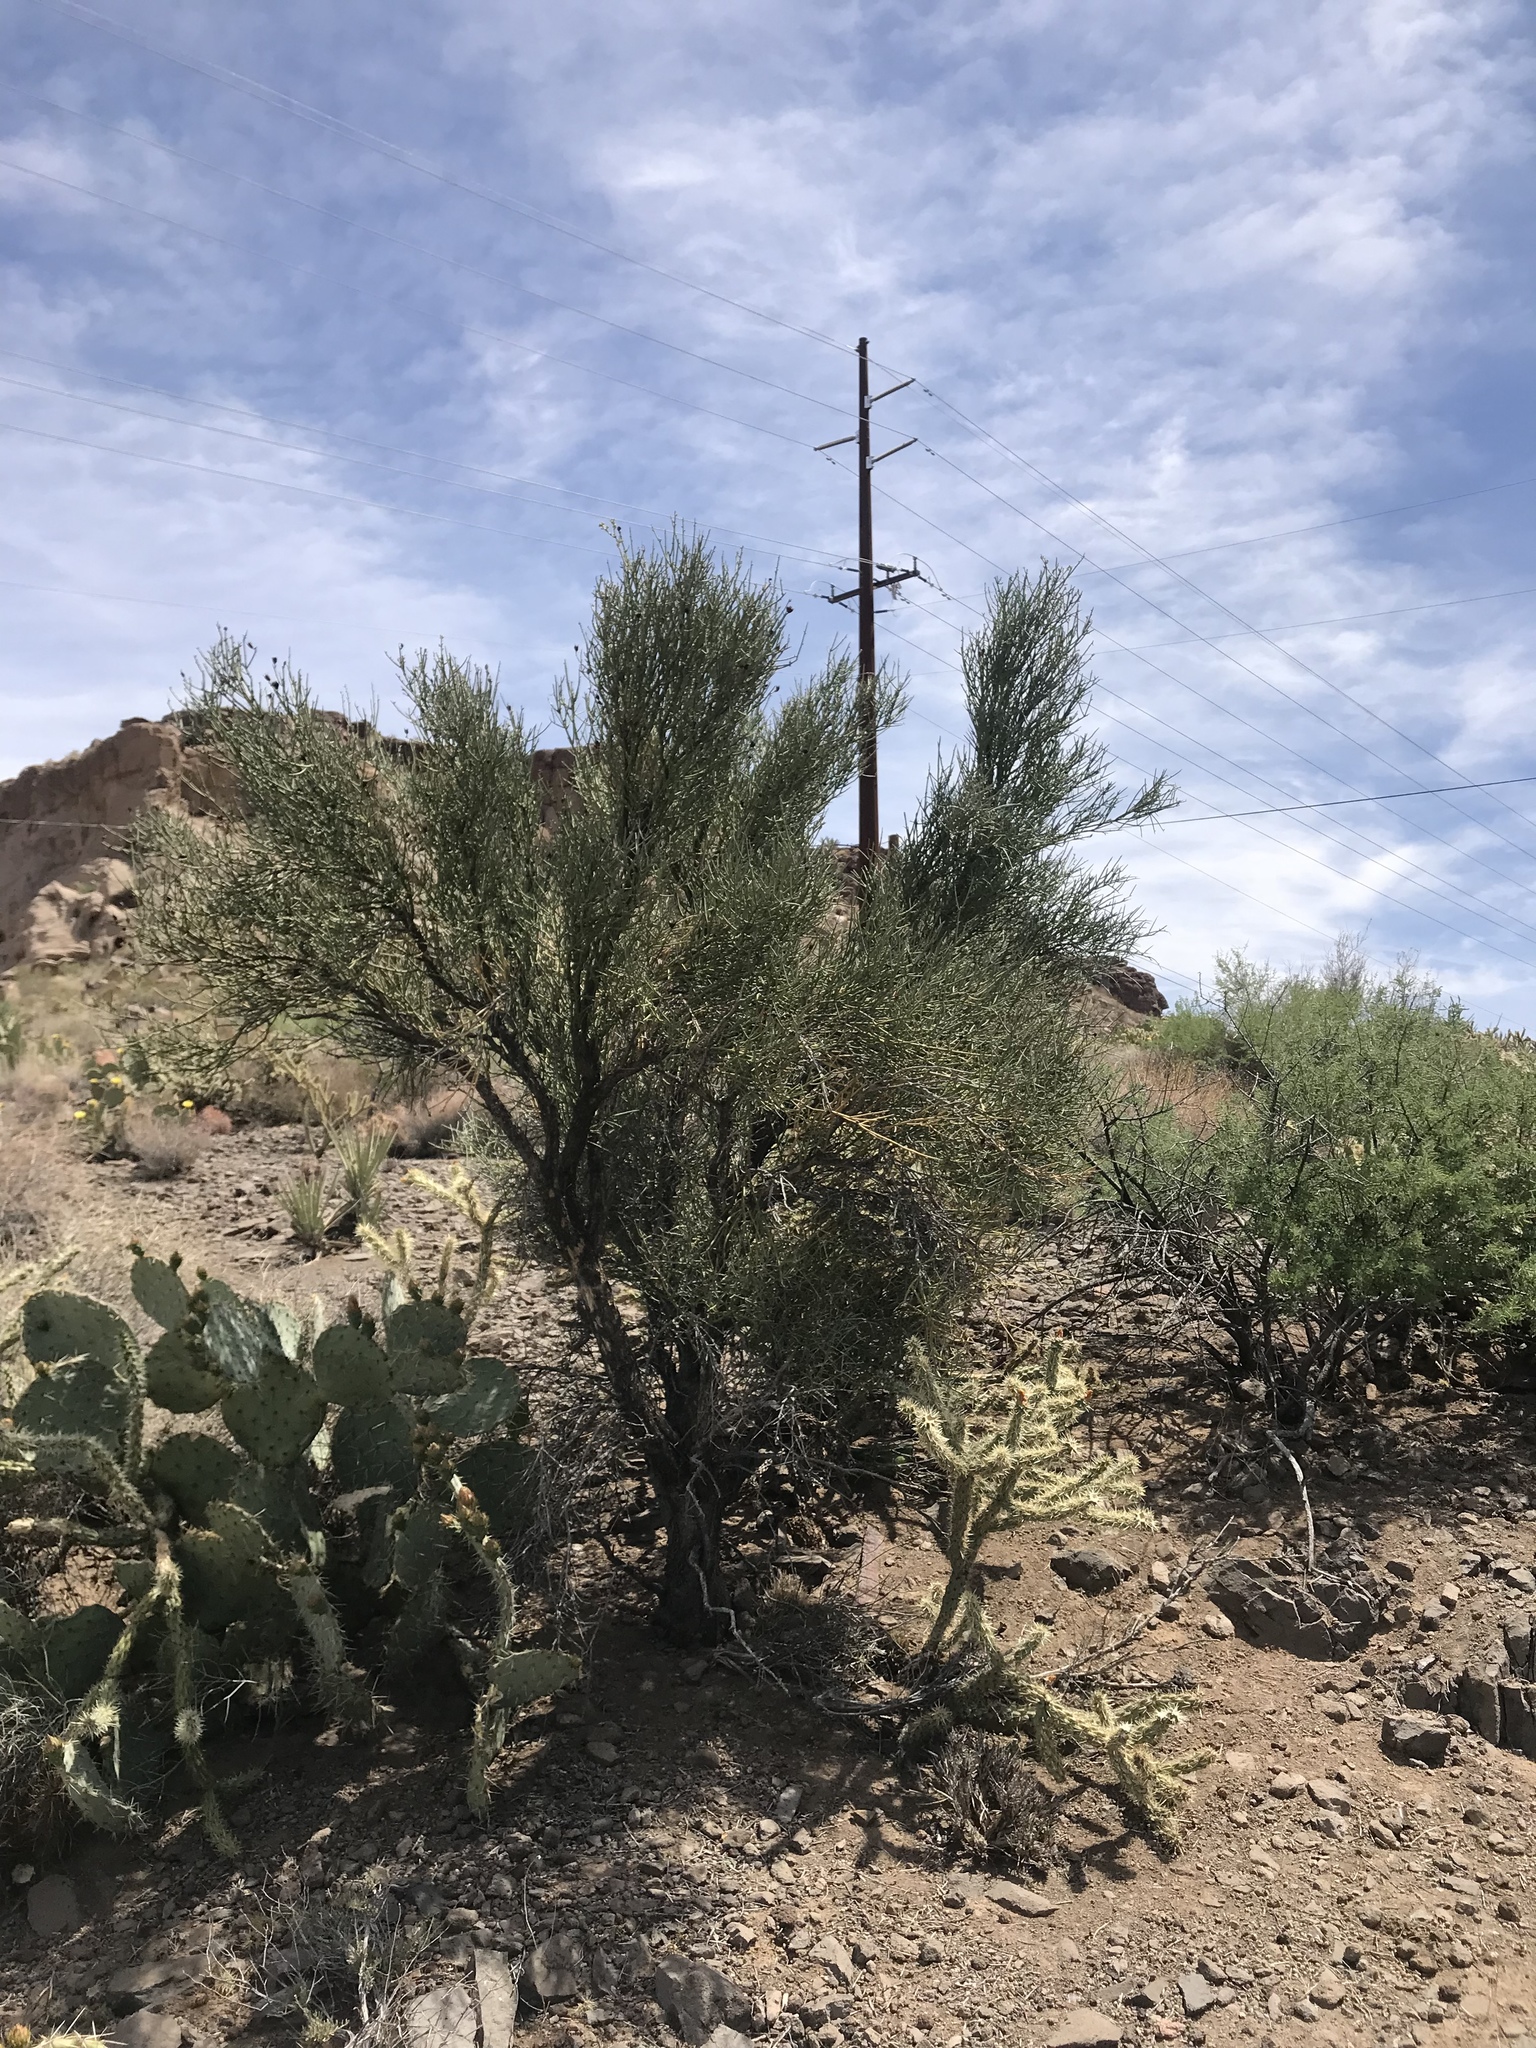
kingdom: Plantae
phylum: Tracheophyta
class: Magnoliopsida
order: Celastrales
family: Celastraceae
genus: Canotia
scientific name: Canotia holacantha
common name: Crucifixion thorns
